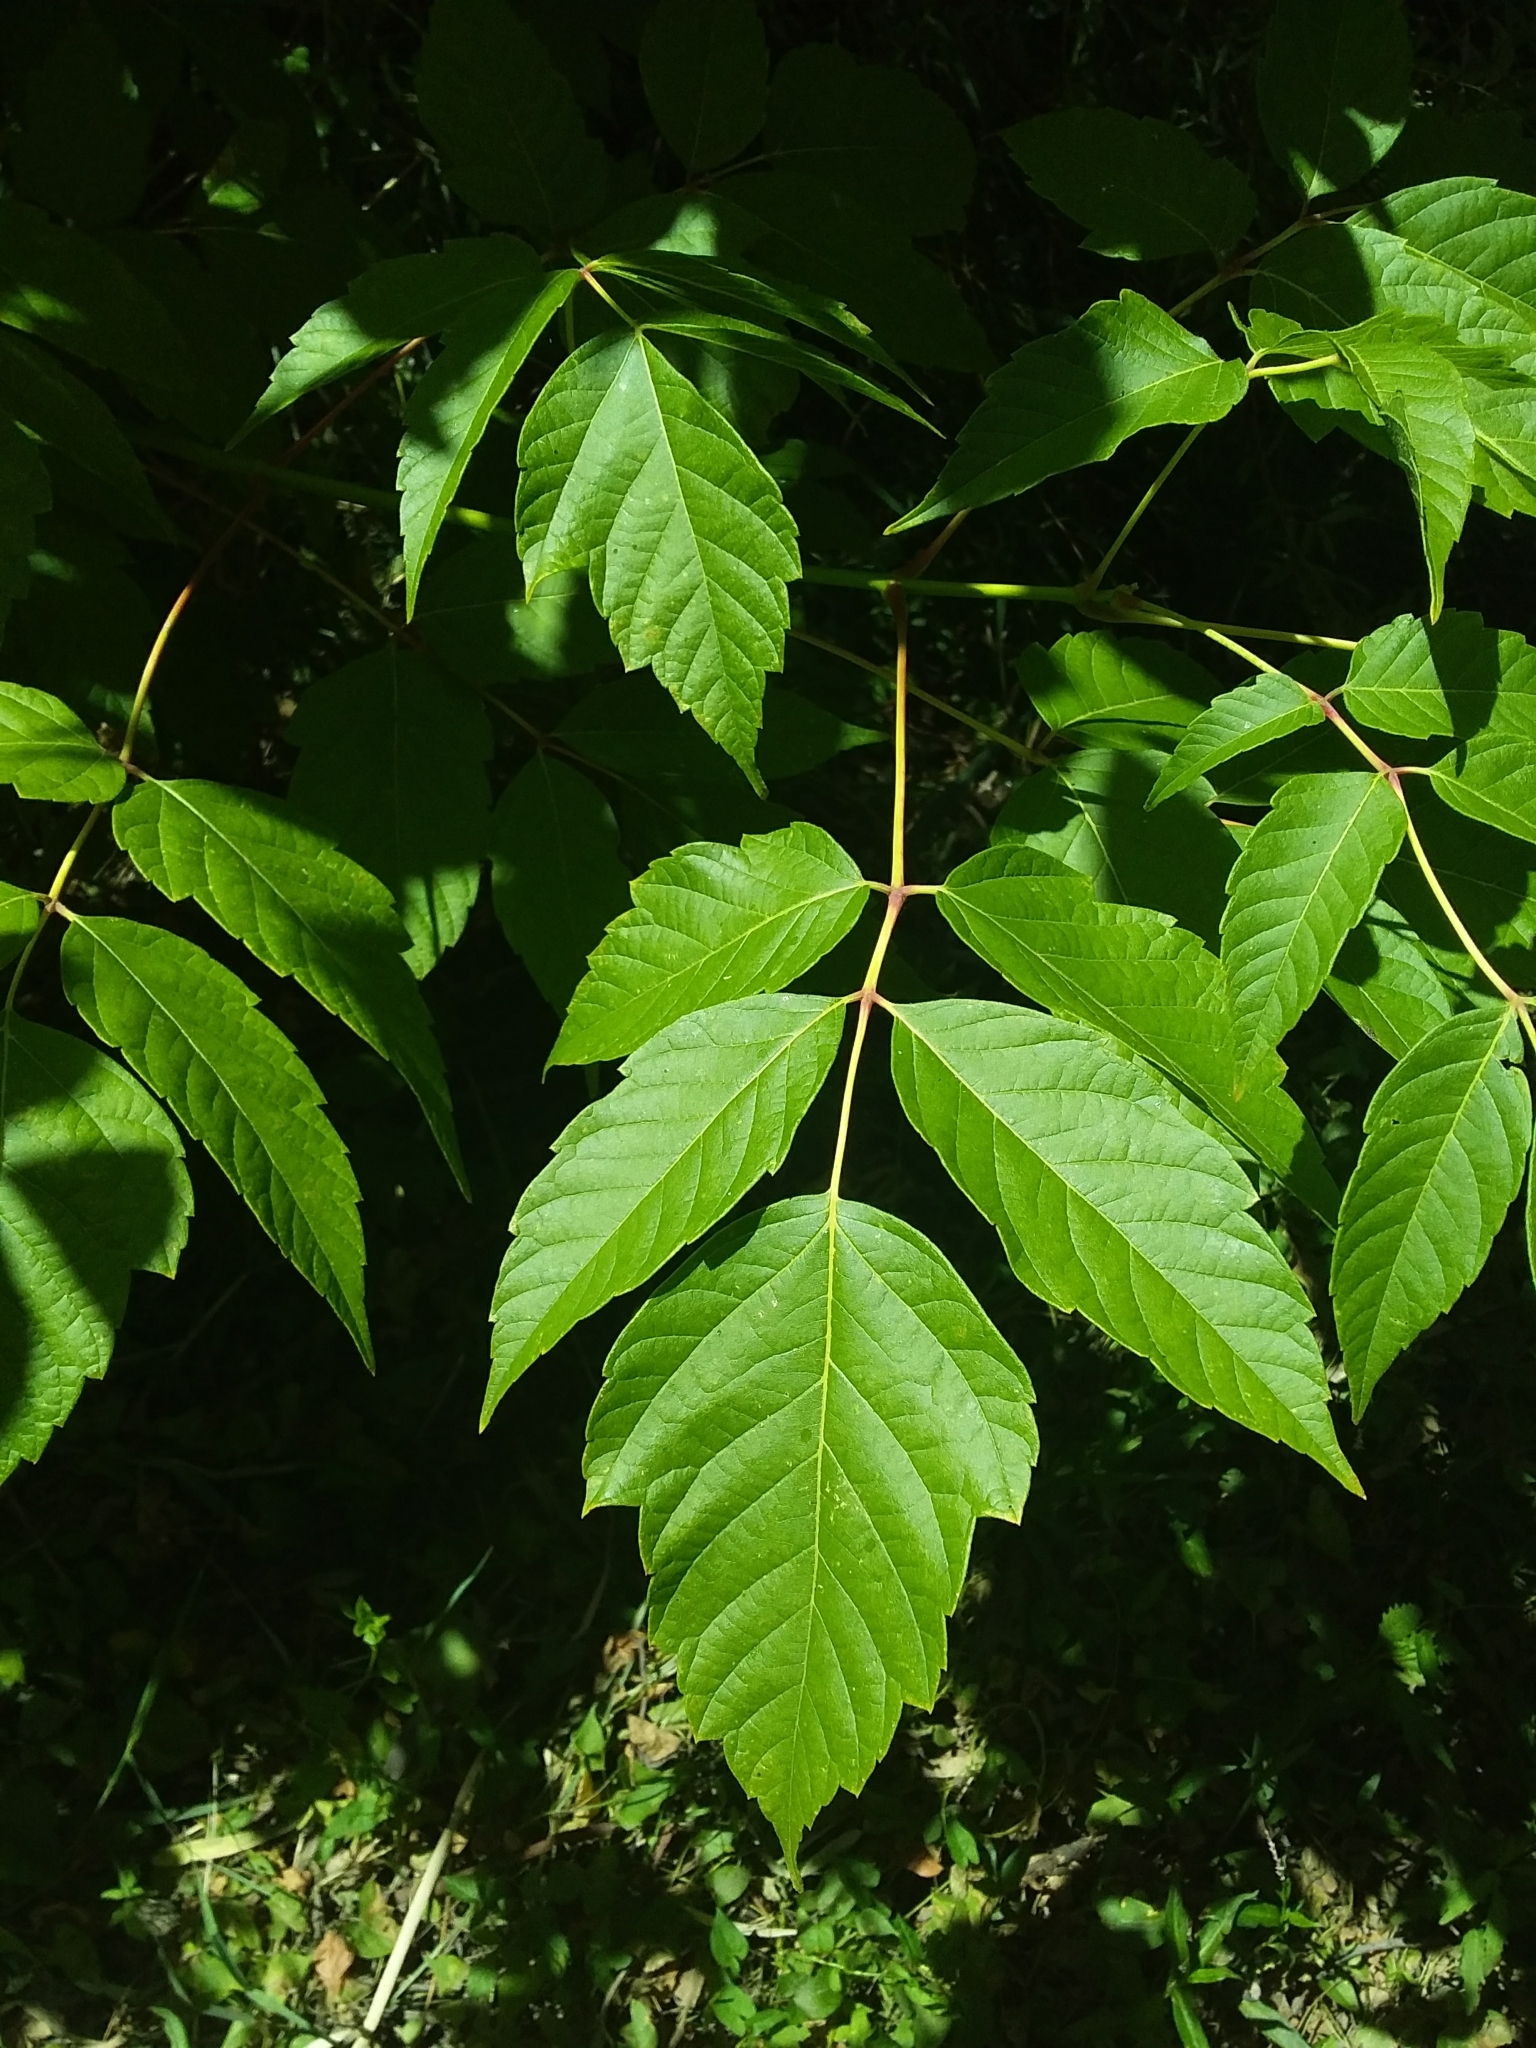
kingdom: Plantae
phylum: Tracheophyta
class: Magnoliopsida
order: Sapindales
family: Sapindaceae
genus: Acer
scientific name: Acer negundo
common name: Ashleaf maple
